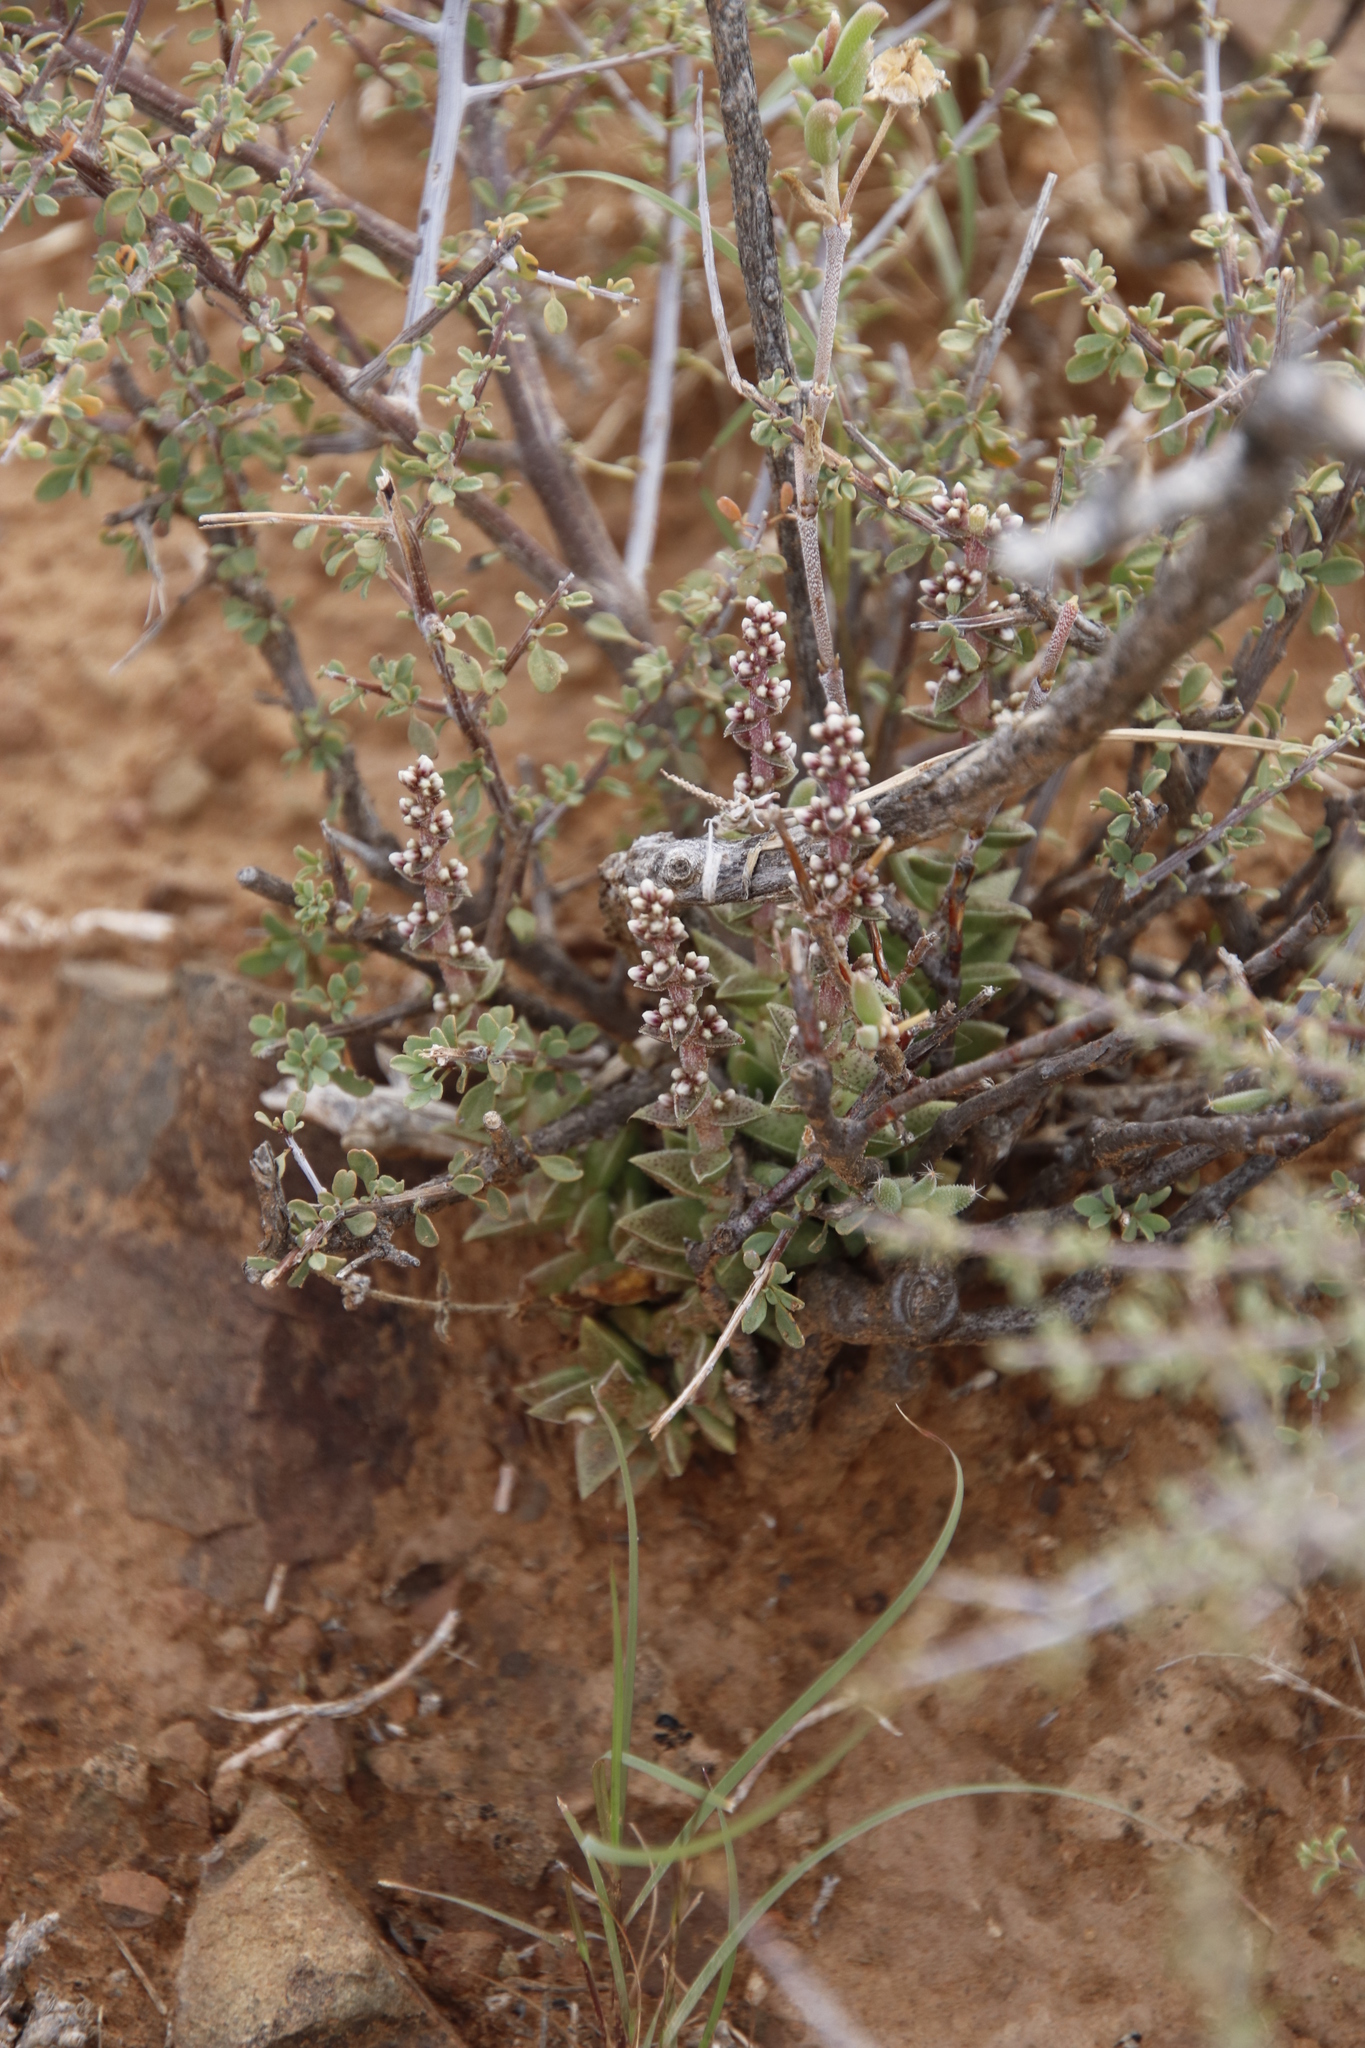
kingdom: Plantae
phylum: Tracheophyta
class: Magnoliopsida
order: Saxifragales
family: Crassulaceae
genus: Crassula
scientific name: Crassula capitella
